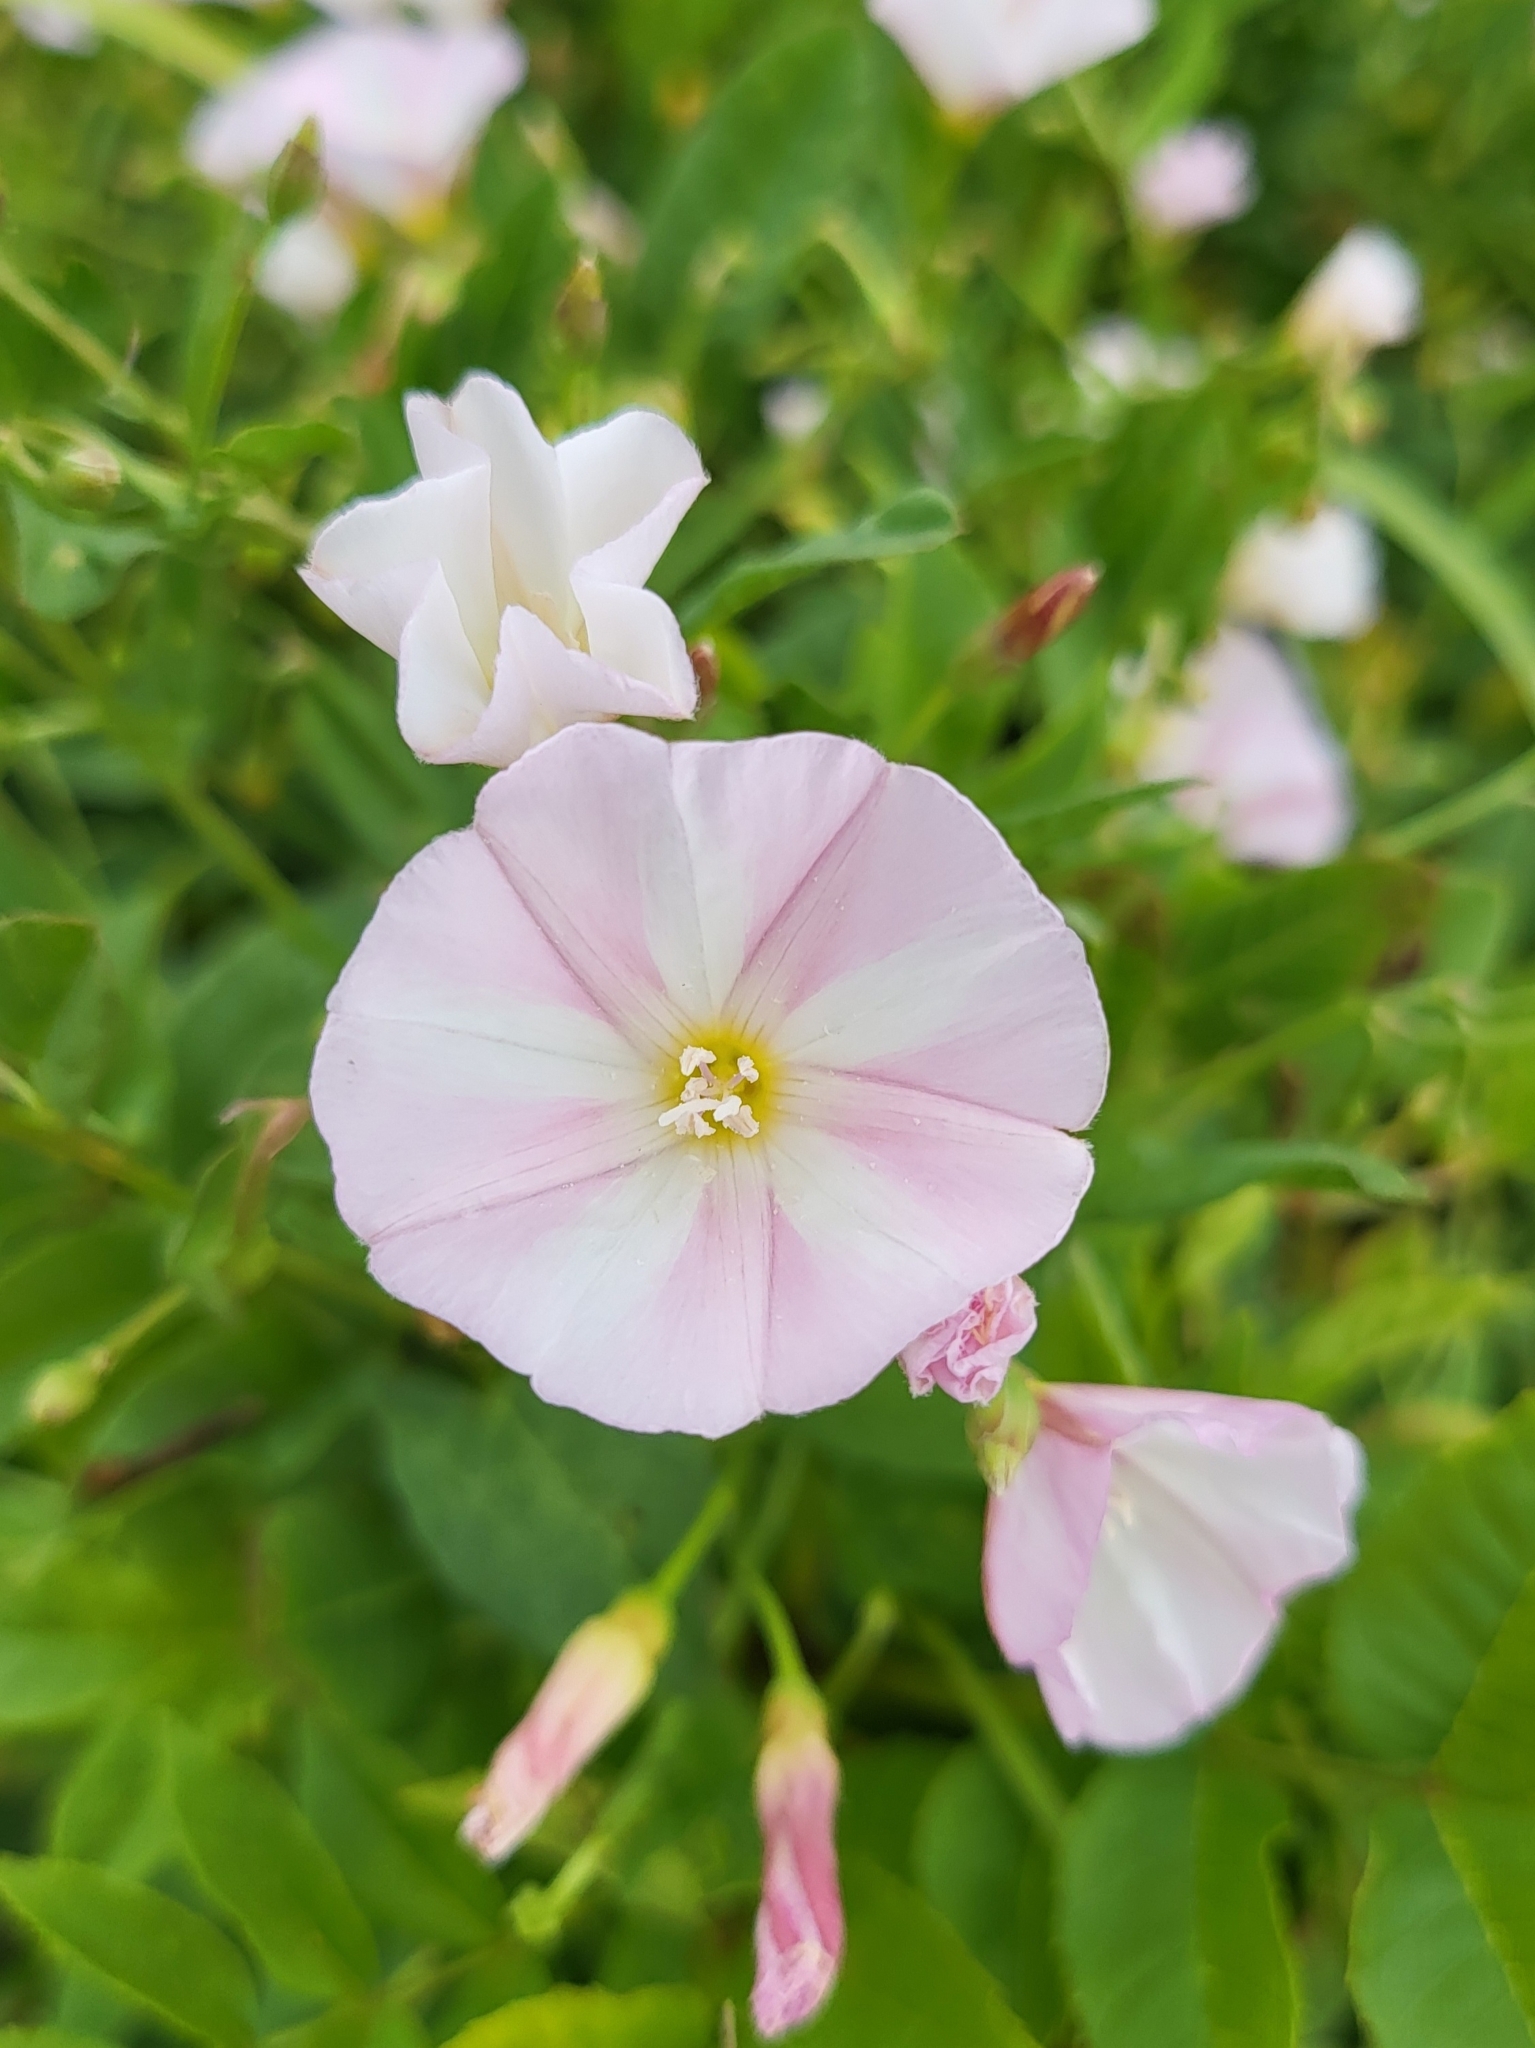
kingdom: Plantae
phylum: Tracheophyta
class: Magnoliopsida
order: Solanales
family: Convolvulaceae
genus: Convolvulus
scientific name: Convolvulus arvensis
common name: Field bindweed
